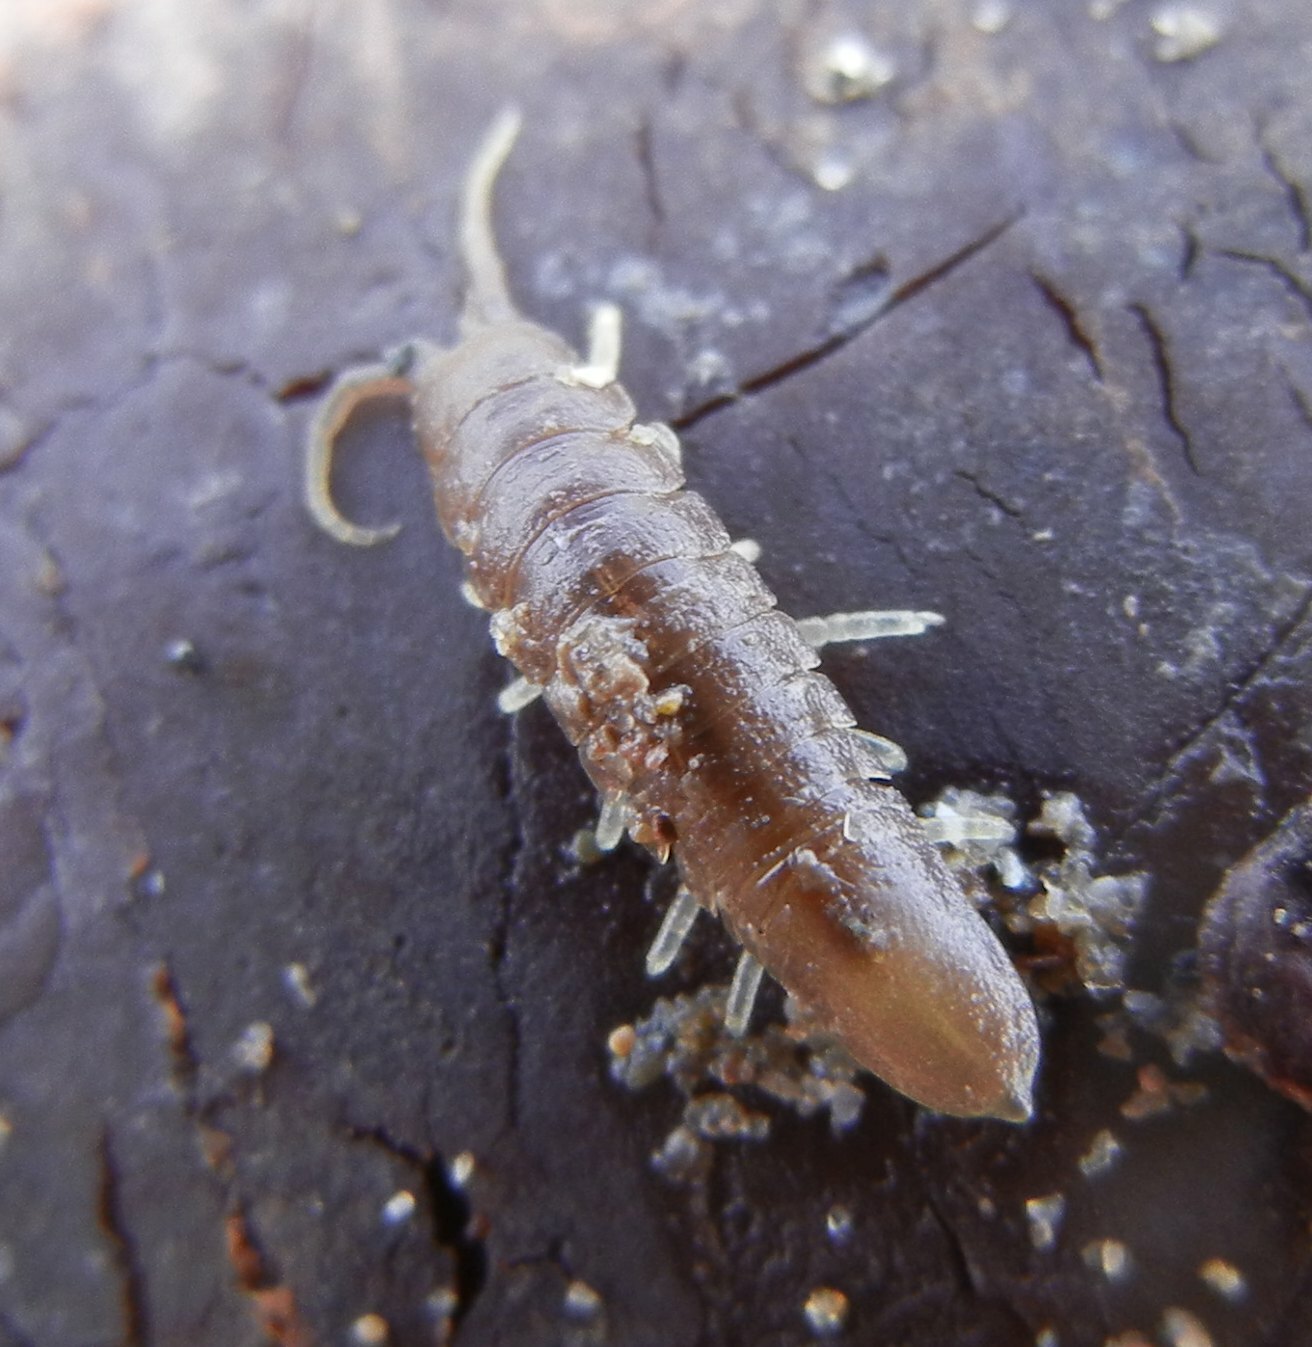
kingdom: Animalia
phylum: Arthropoda
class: Malacostraca
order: Isopoda
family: Idoteidae
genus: Idotea
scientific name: Idotea granulosa
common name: Granular marine isopod
